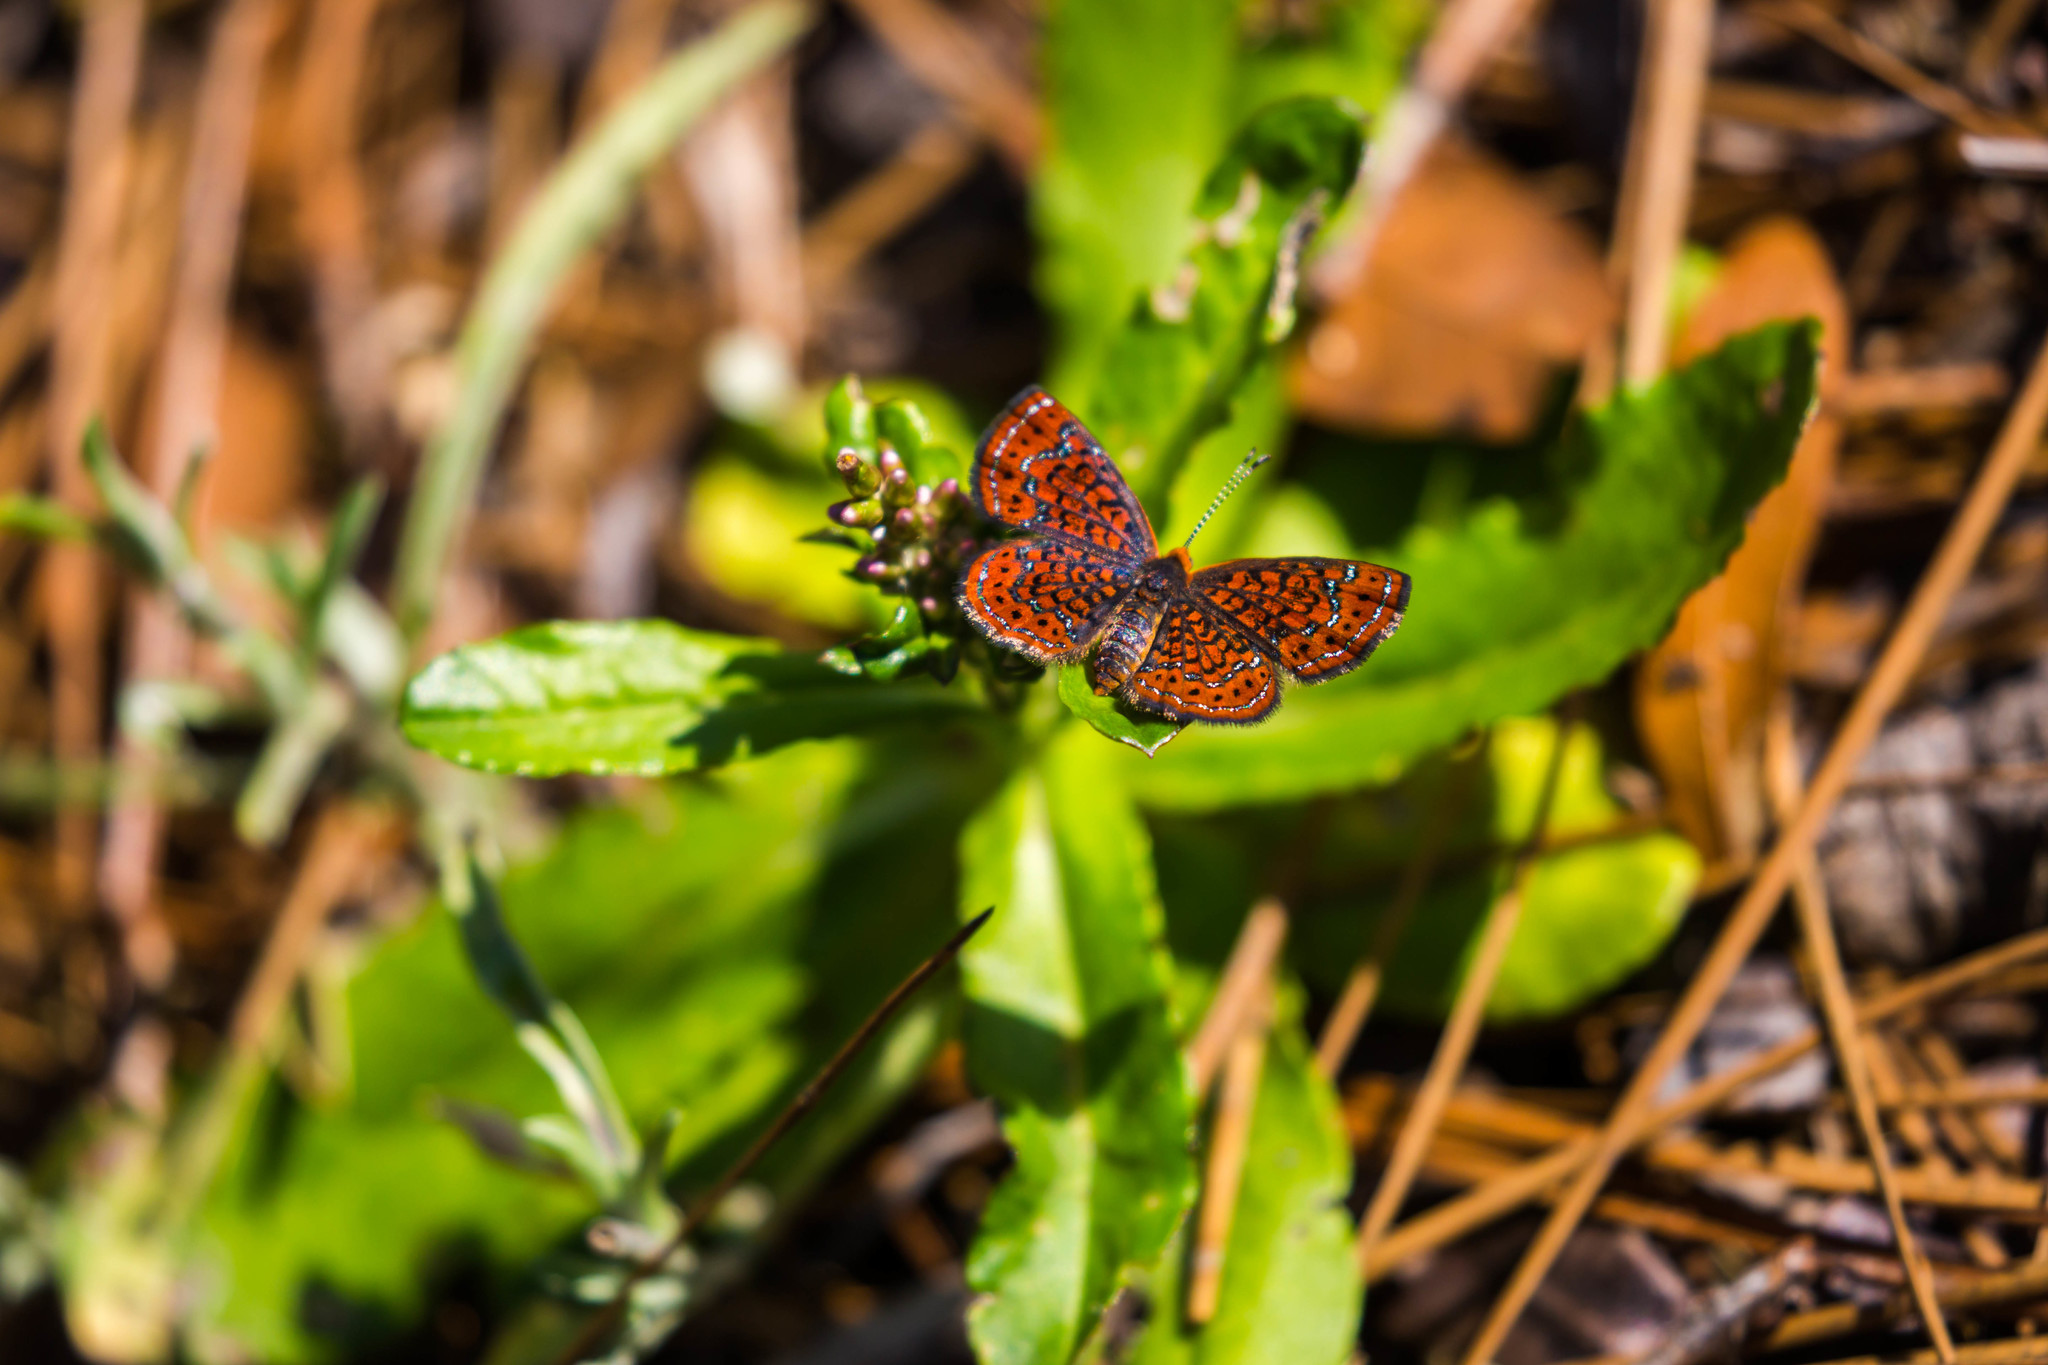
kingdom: Animalia
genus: Calephelis
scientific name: Calephelis virginiensis
